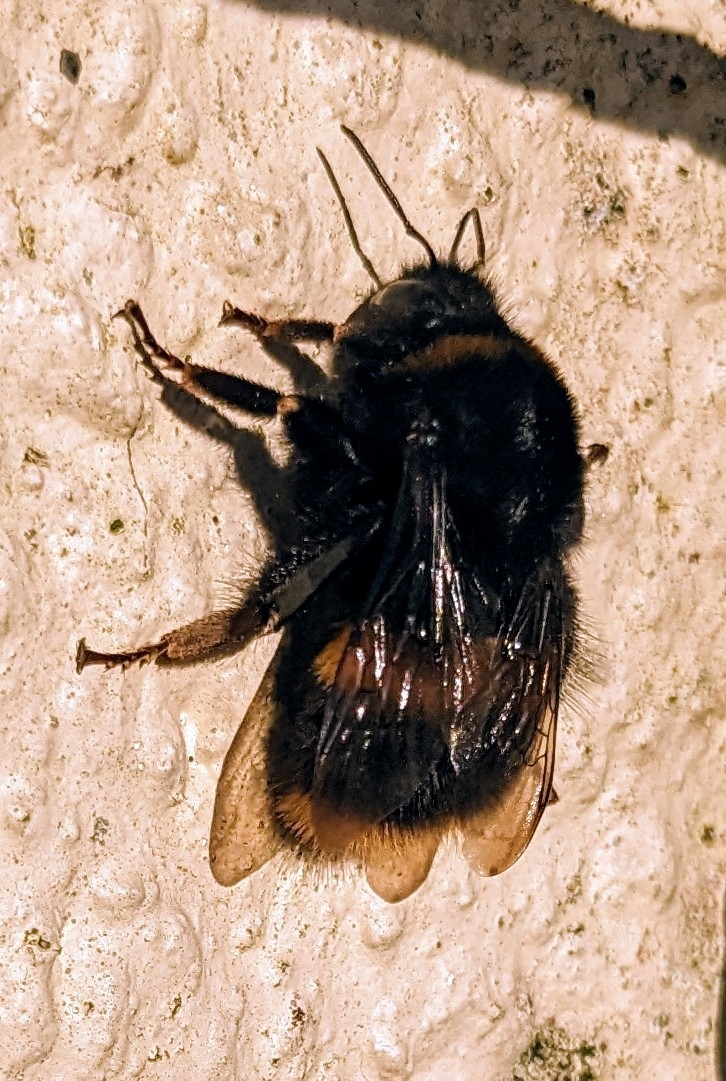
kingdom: Animalia
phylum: Arthropoda
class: Insecta
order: Hymenoptera
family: Apidae
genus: Bombus
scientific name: Bombus terrestris
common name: Buff-tailed bumblebee
